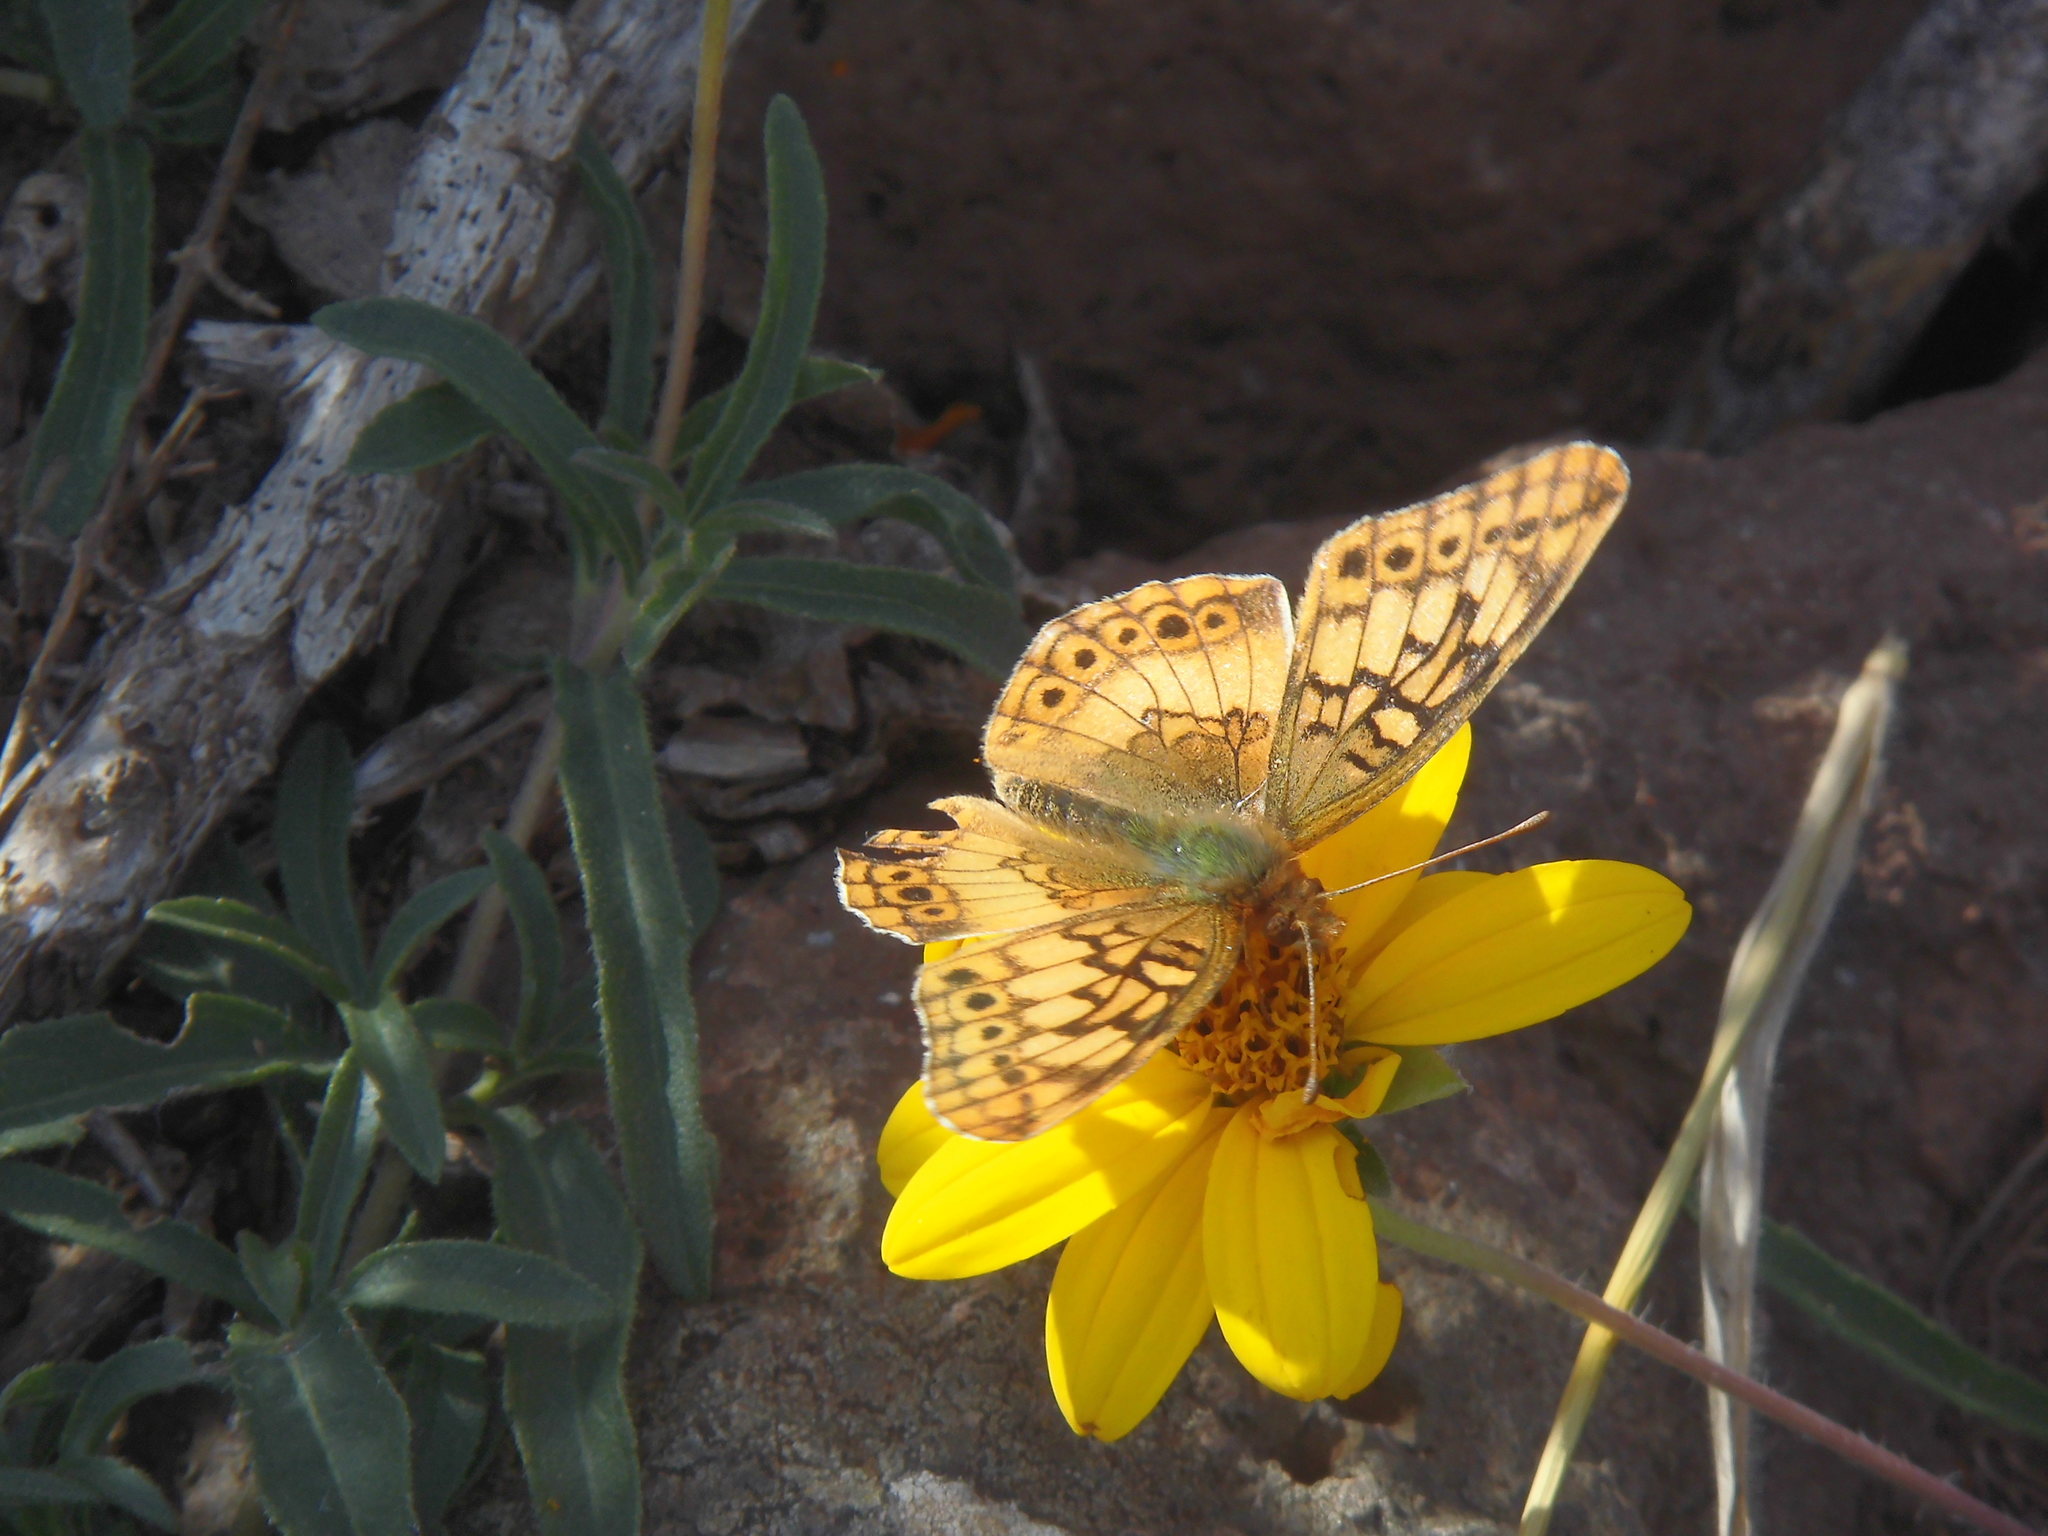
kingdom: Animalia
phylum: Arthropoda
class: Insecta
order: Lepidoptera
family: Nymphalidae
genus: Euptoieta
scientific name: Euptoieta hortensia
